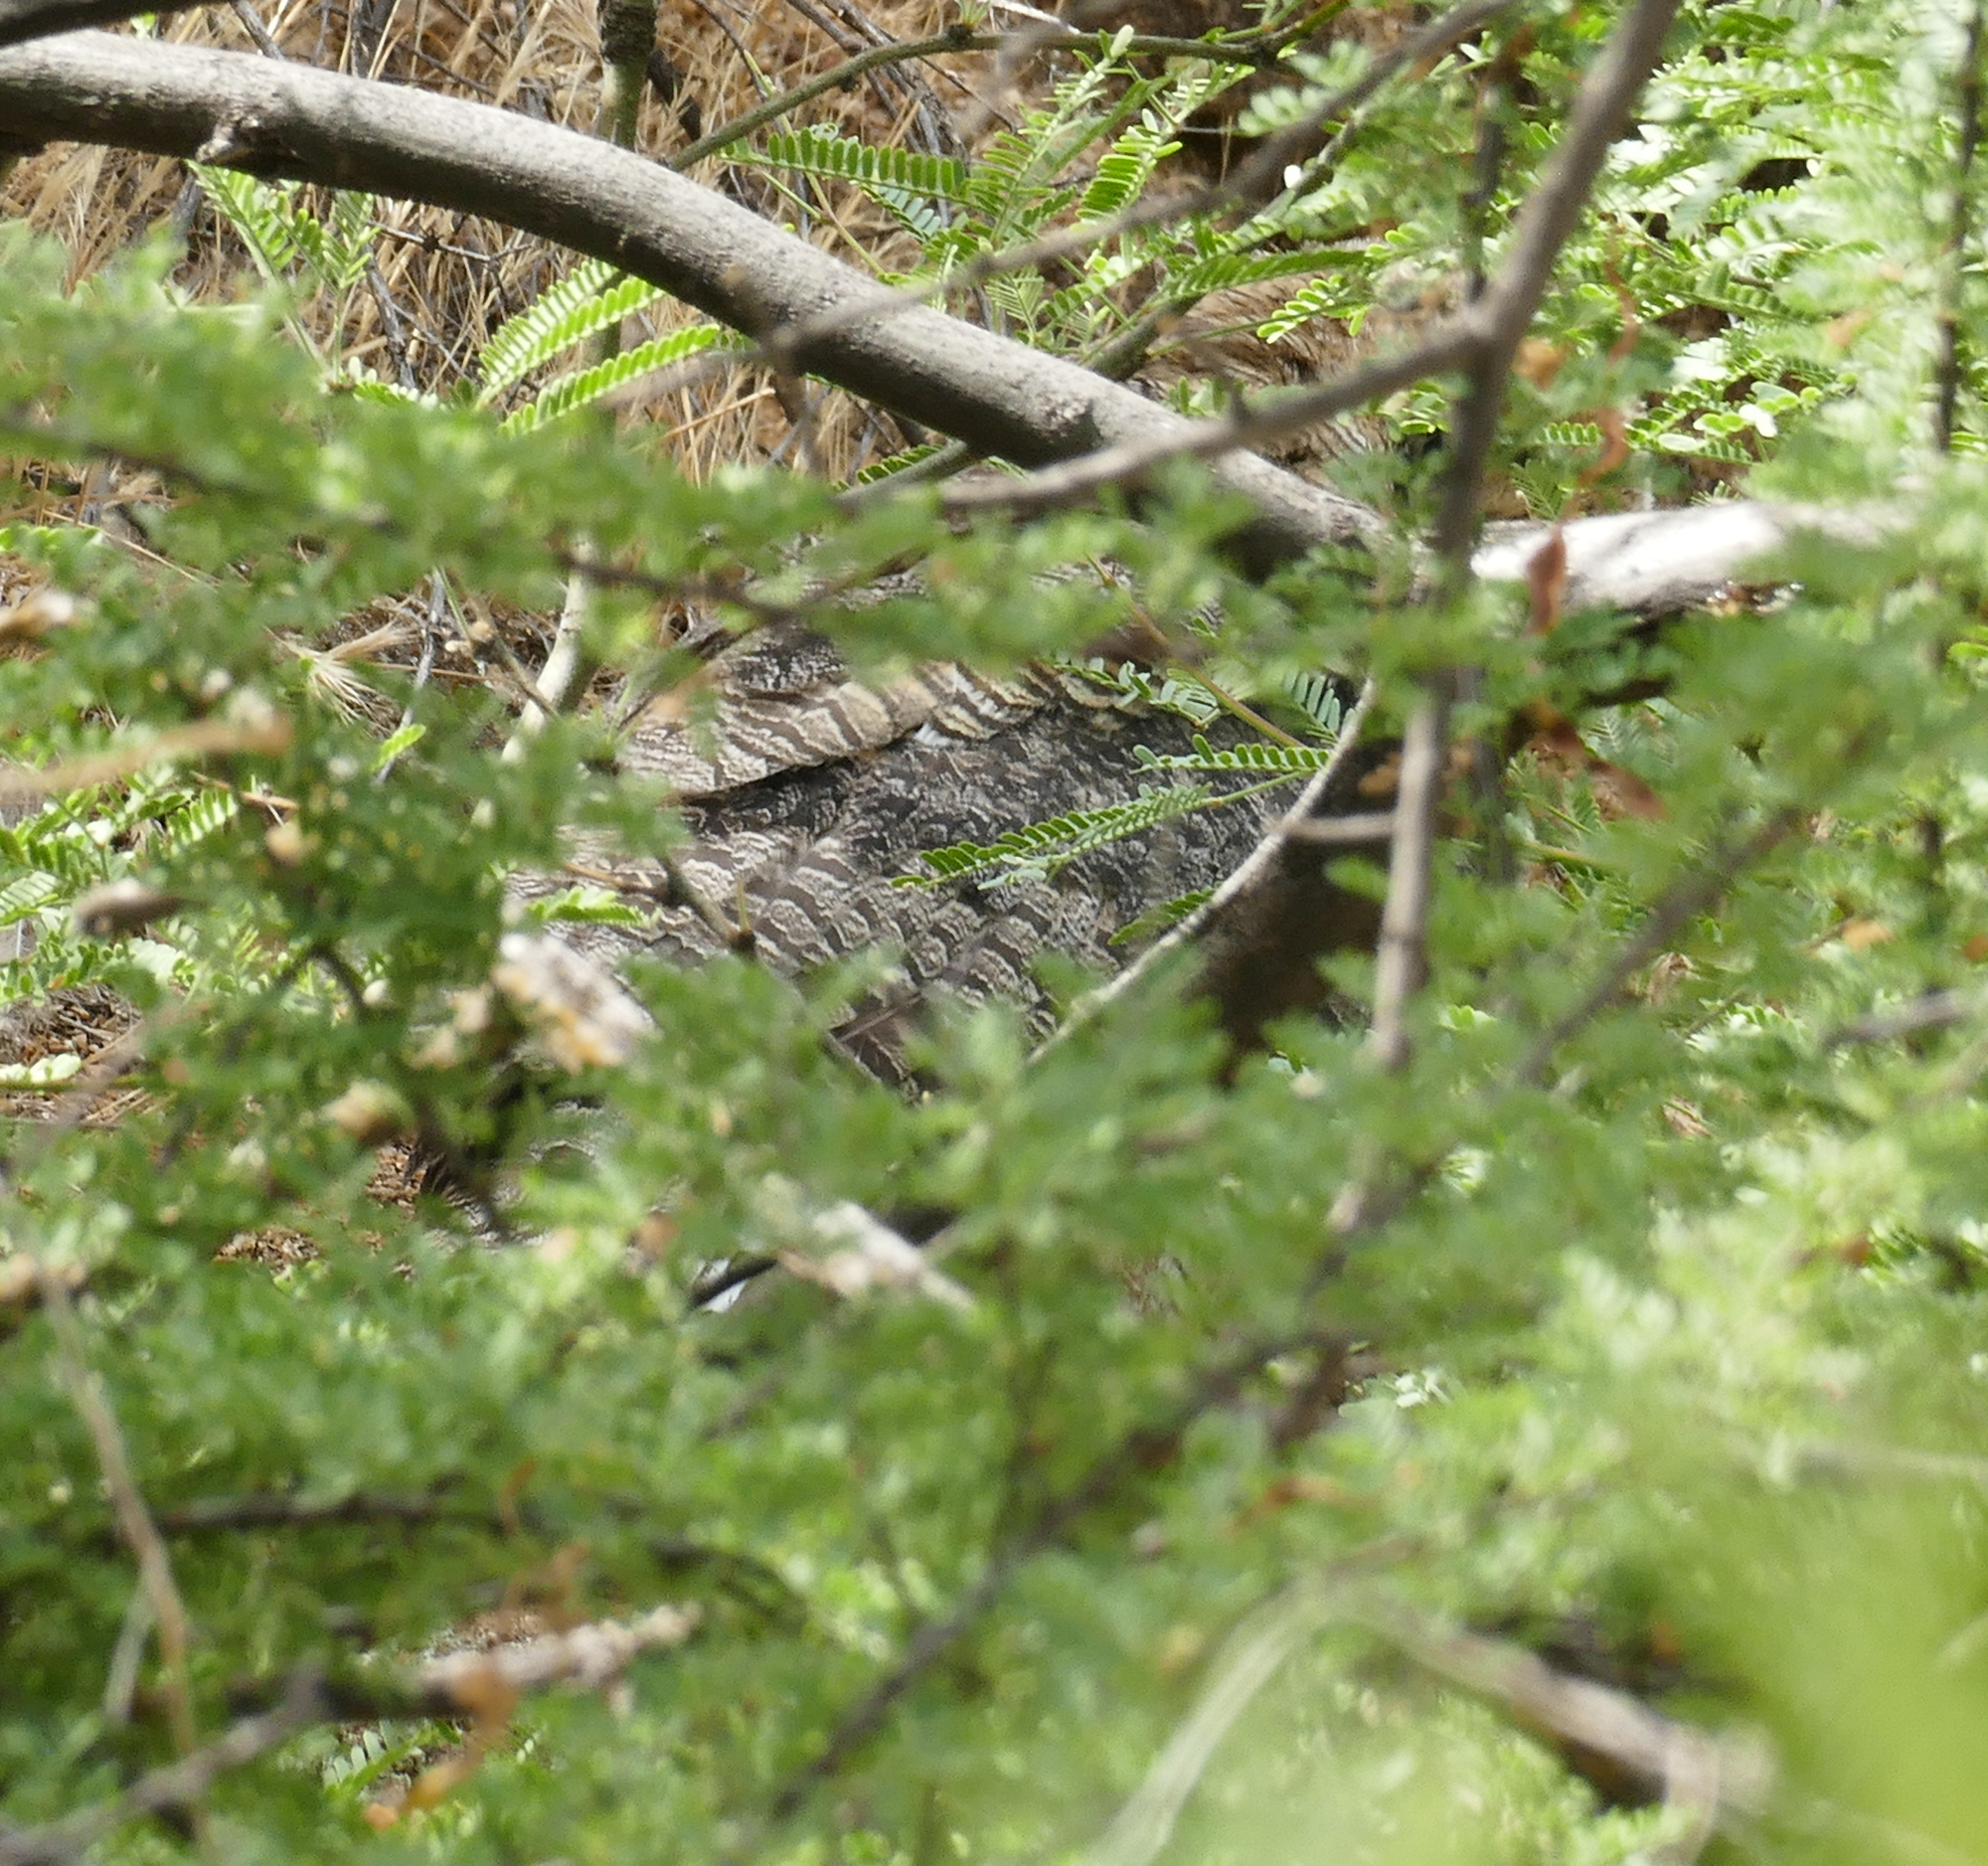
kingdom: Animalia
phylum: Chordata
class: Aves
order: Strigiformes
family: Strigidae
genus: Bubo
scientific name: Bubo virginianus
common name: Great horned owl
